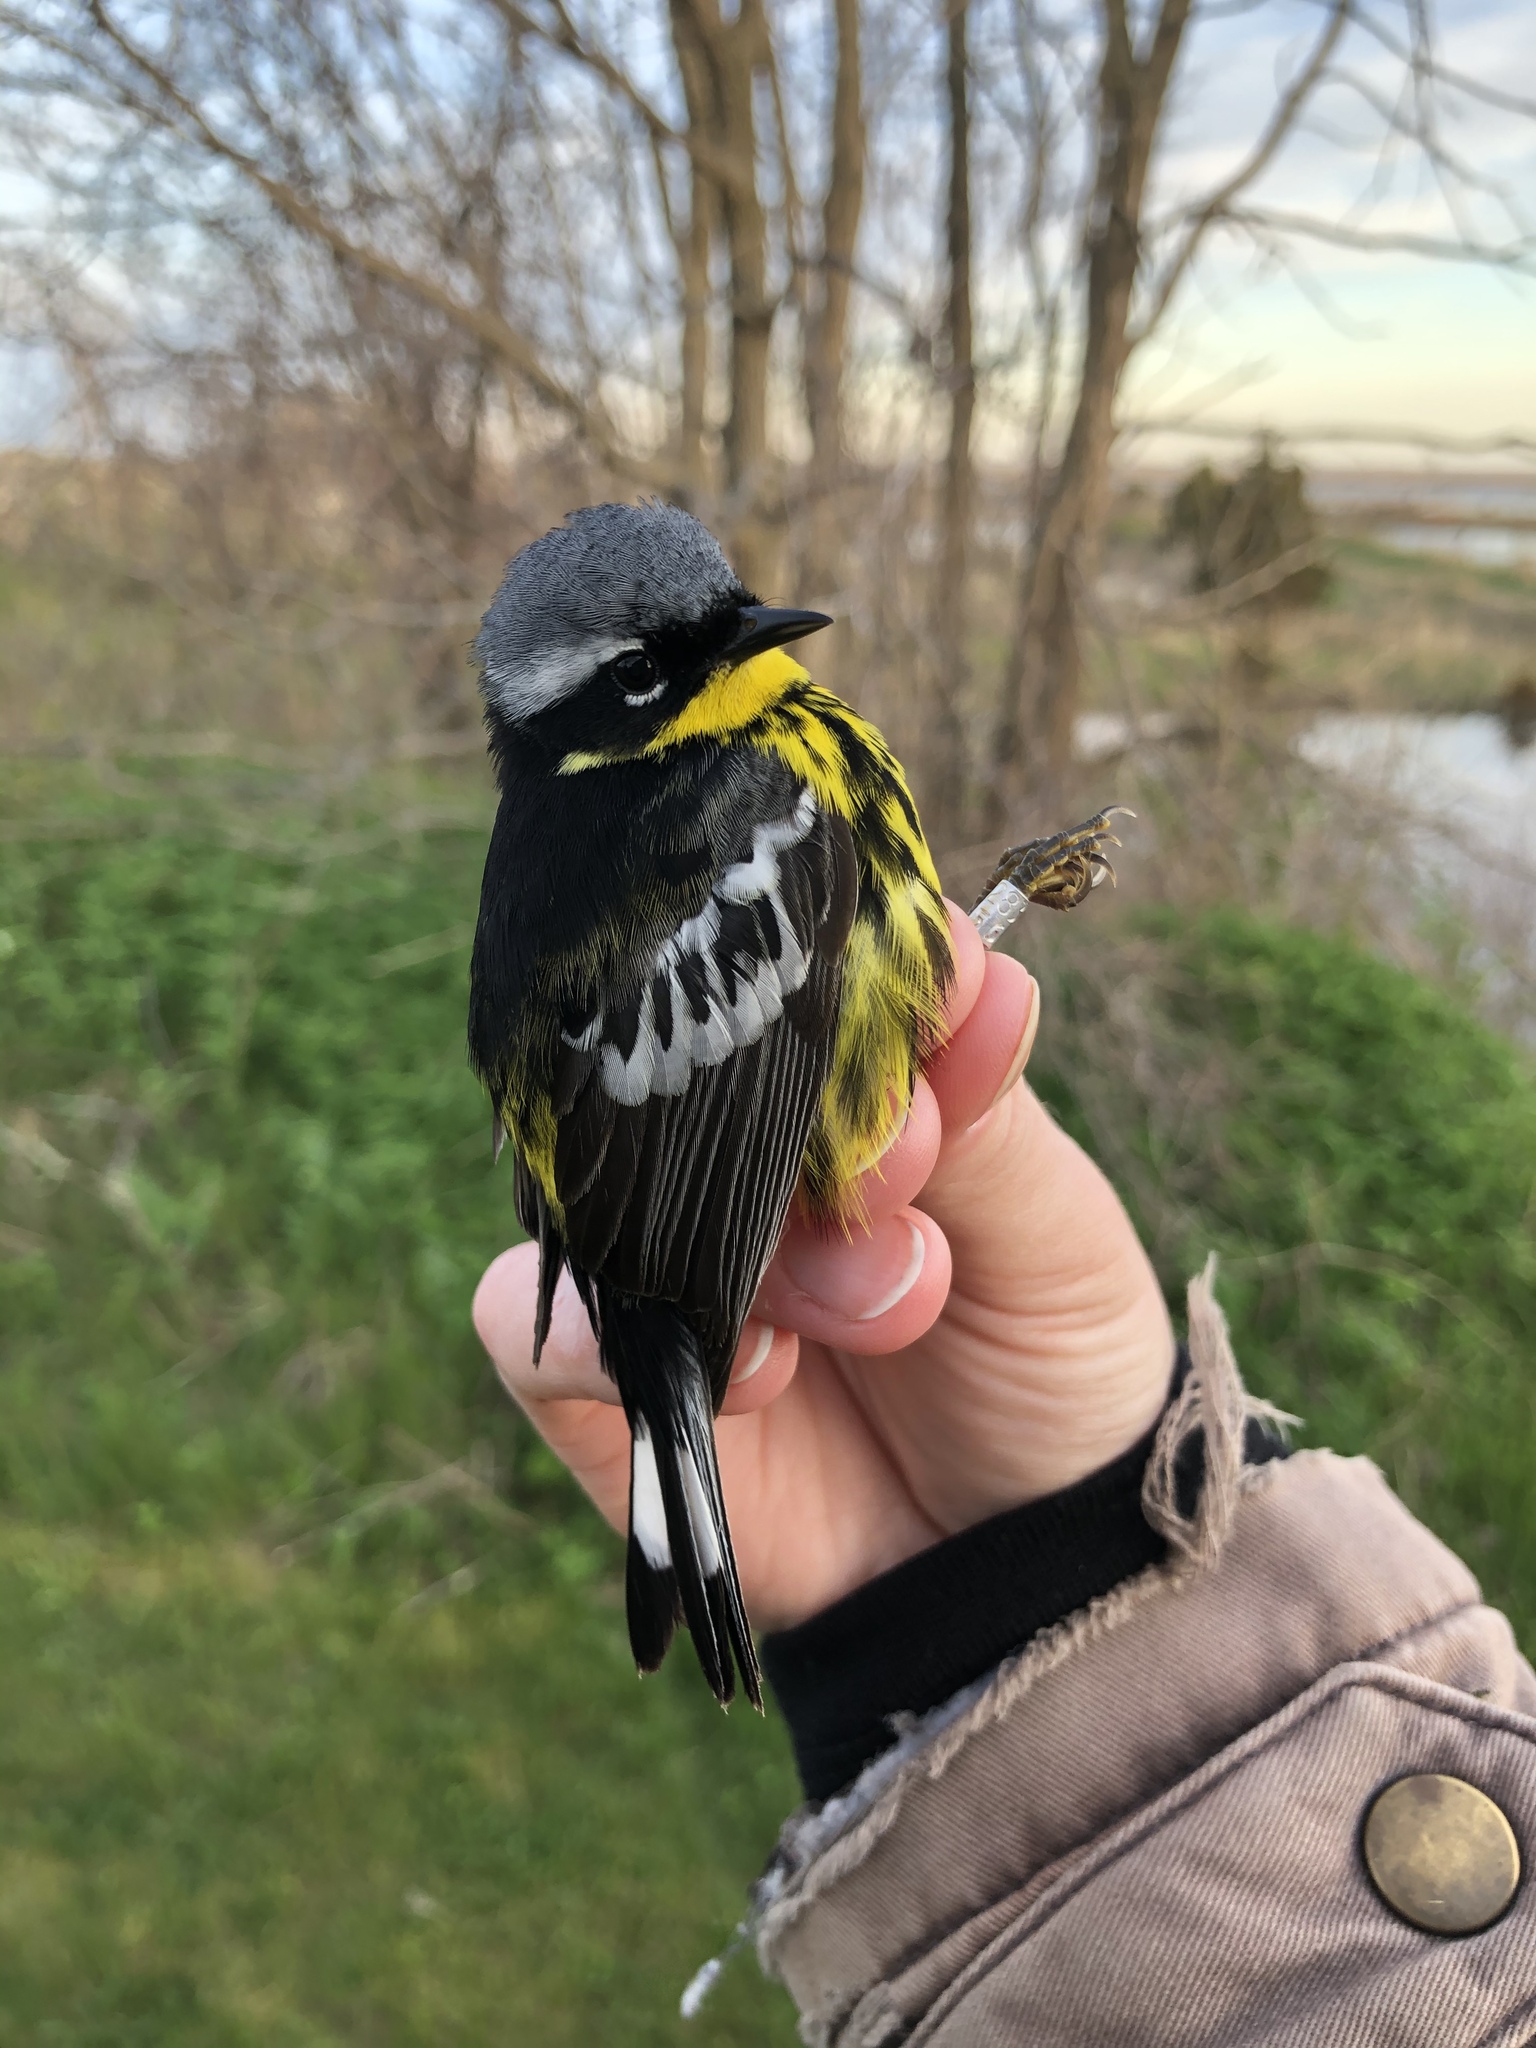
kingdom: Animalia
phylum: Chordata
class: Aves
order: Passeriformes
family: Parulidae
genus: Setophaga
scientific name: Setophaga magnolia
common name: Magnolia warbler
